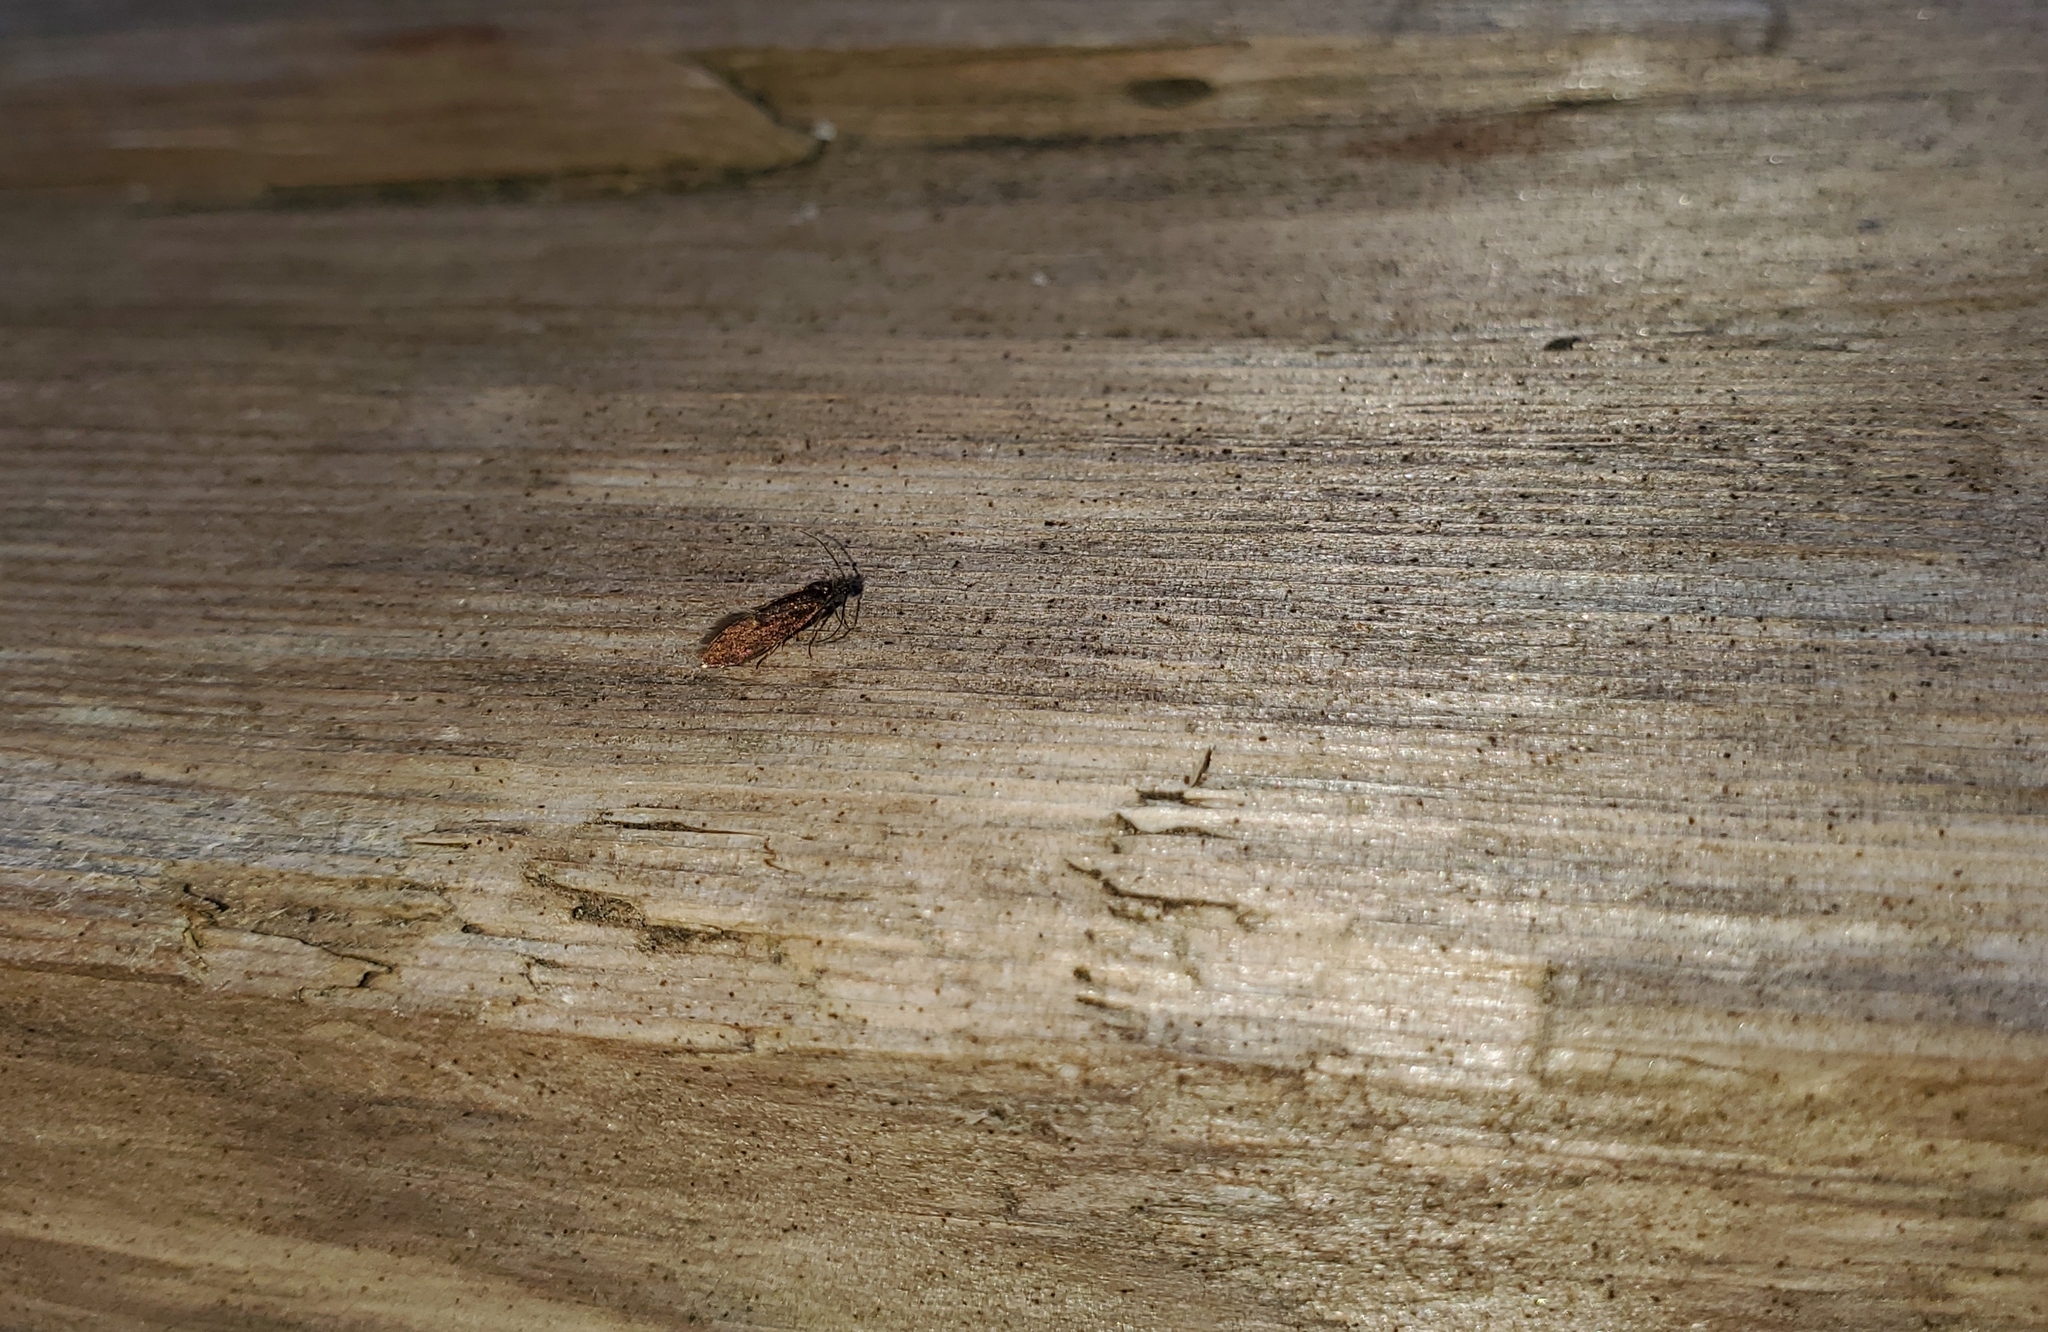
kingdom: Animalia
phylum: Arthropoda
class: Insecta
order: Lepidoptera
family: Eriocraniidae
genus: Eriocrania
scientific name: Eriocrania semipurpurella
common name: Early purple
